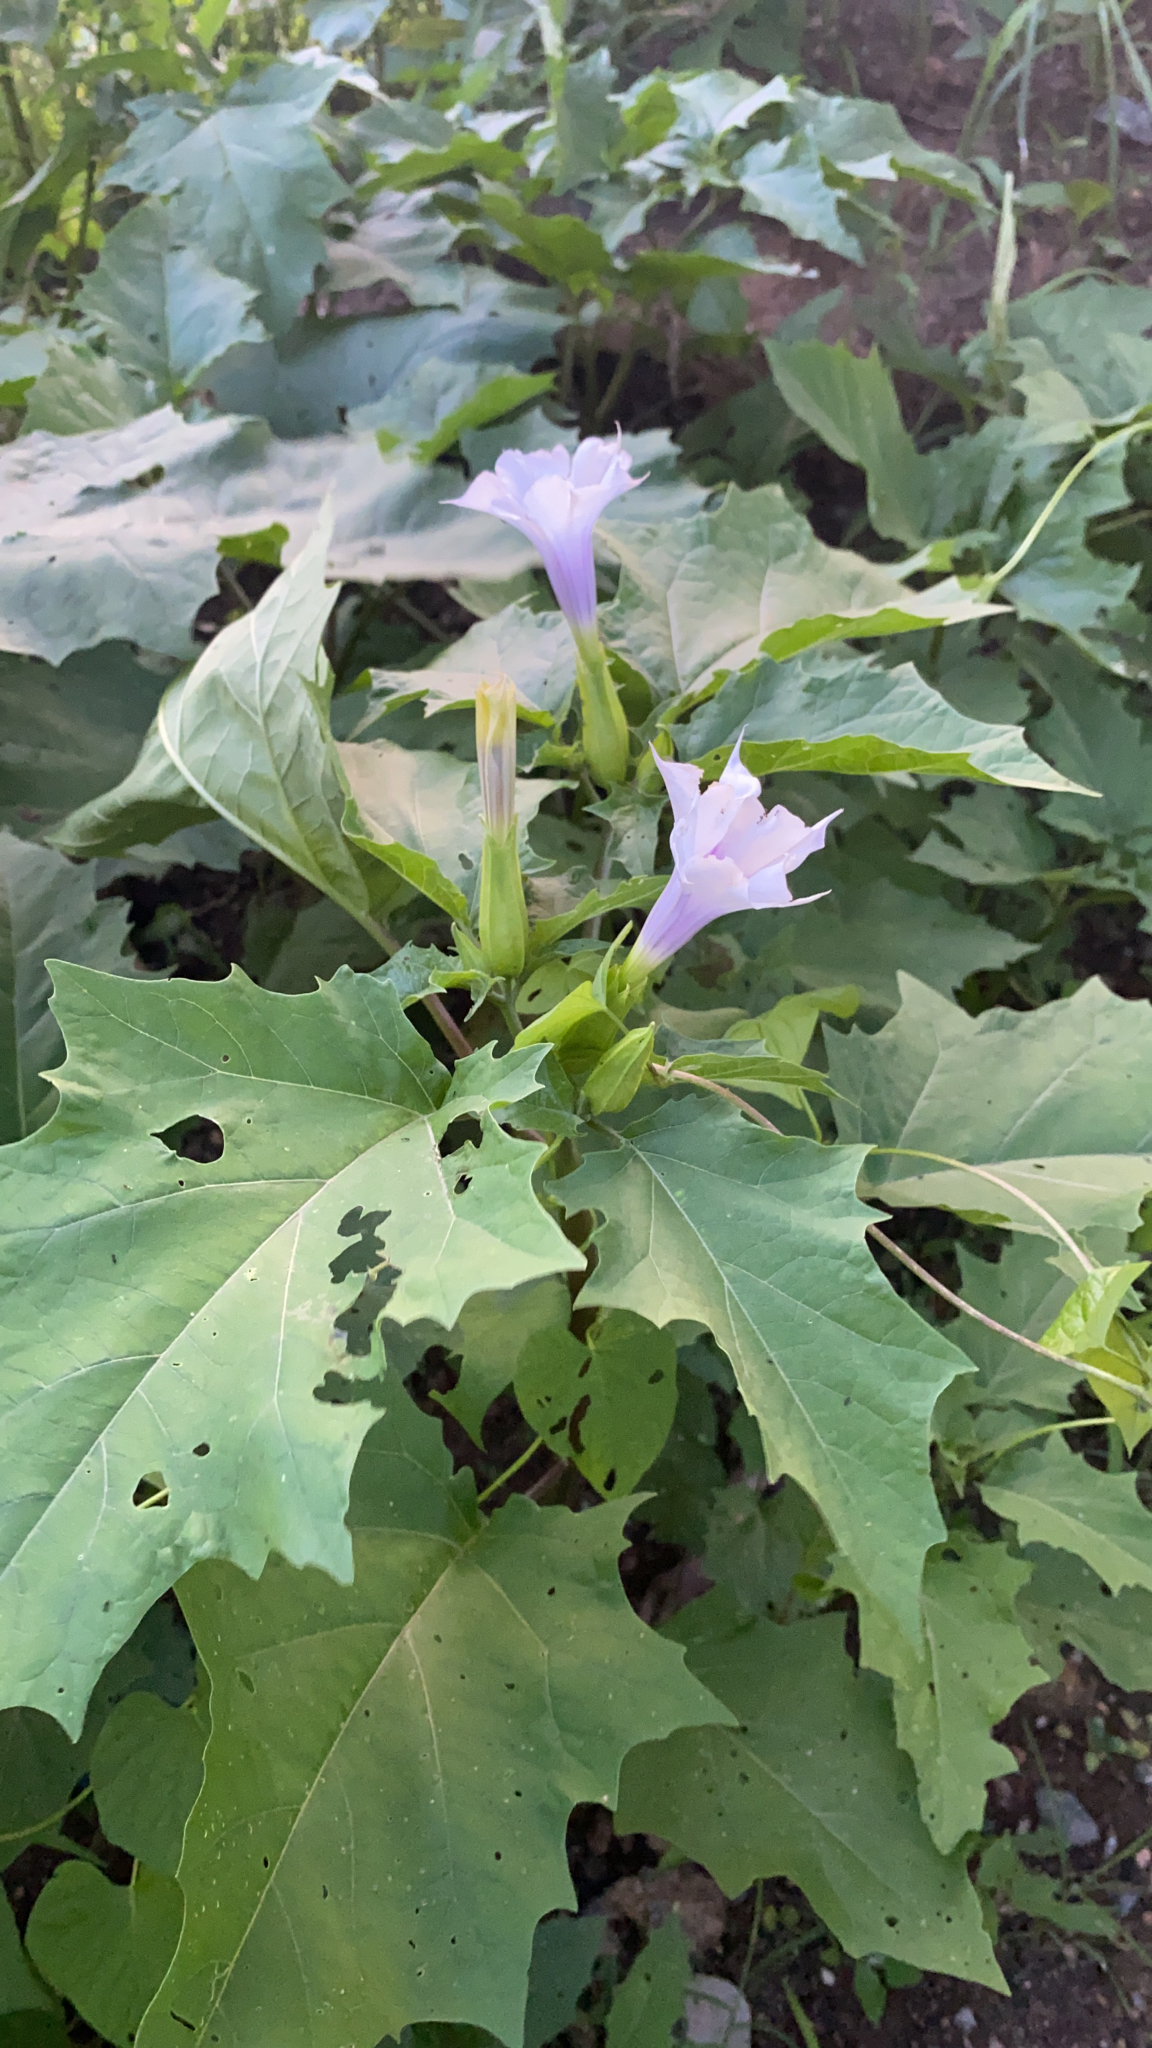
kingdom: Plantae
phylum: Tracheophyta
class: Magnoliopsida
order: Solanales
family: Solanaceae
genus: Datura
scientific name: Datura stramonium
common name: Thorn-apple
